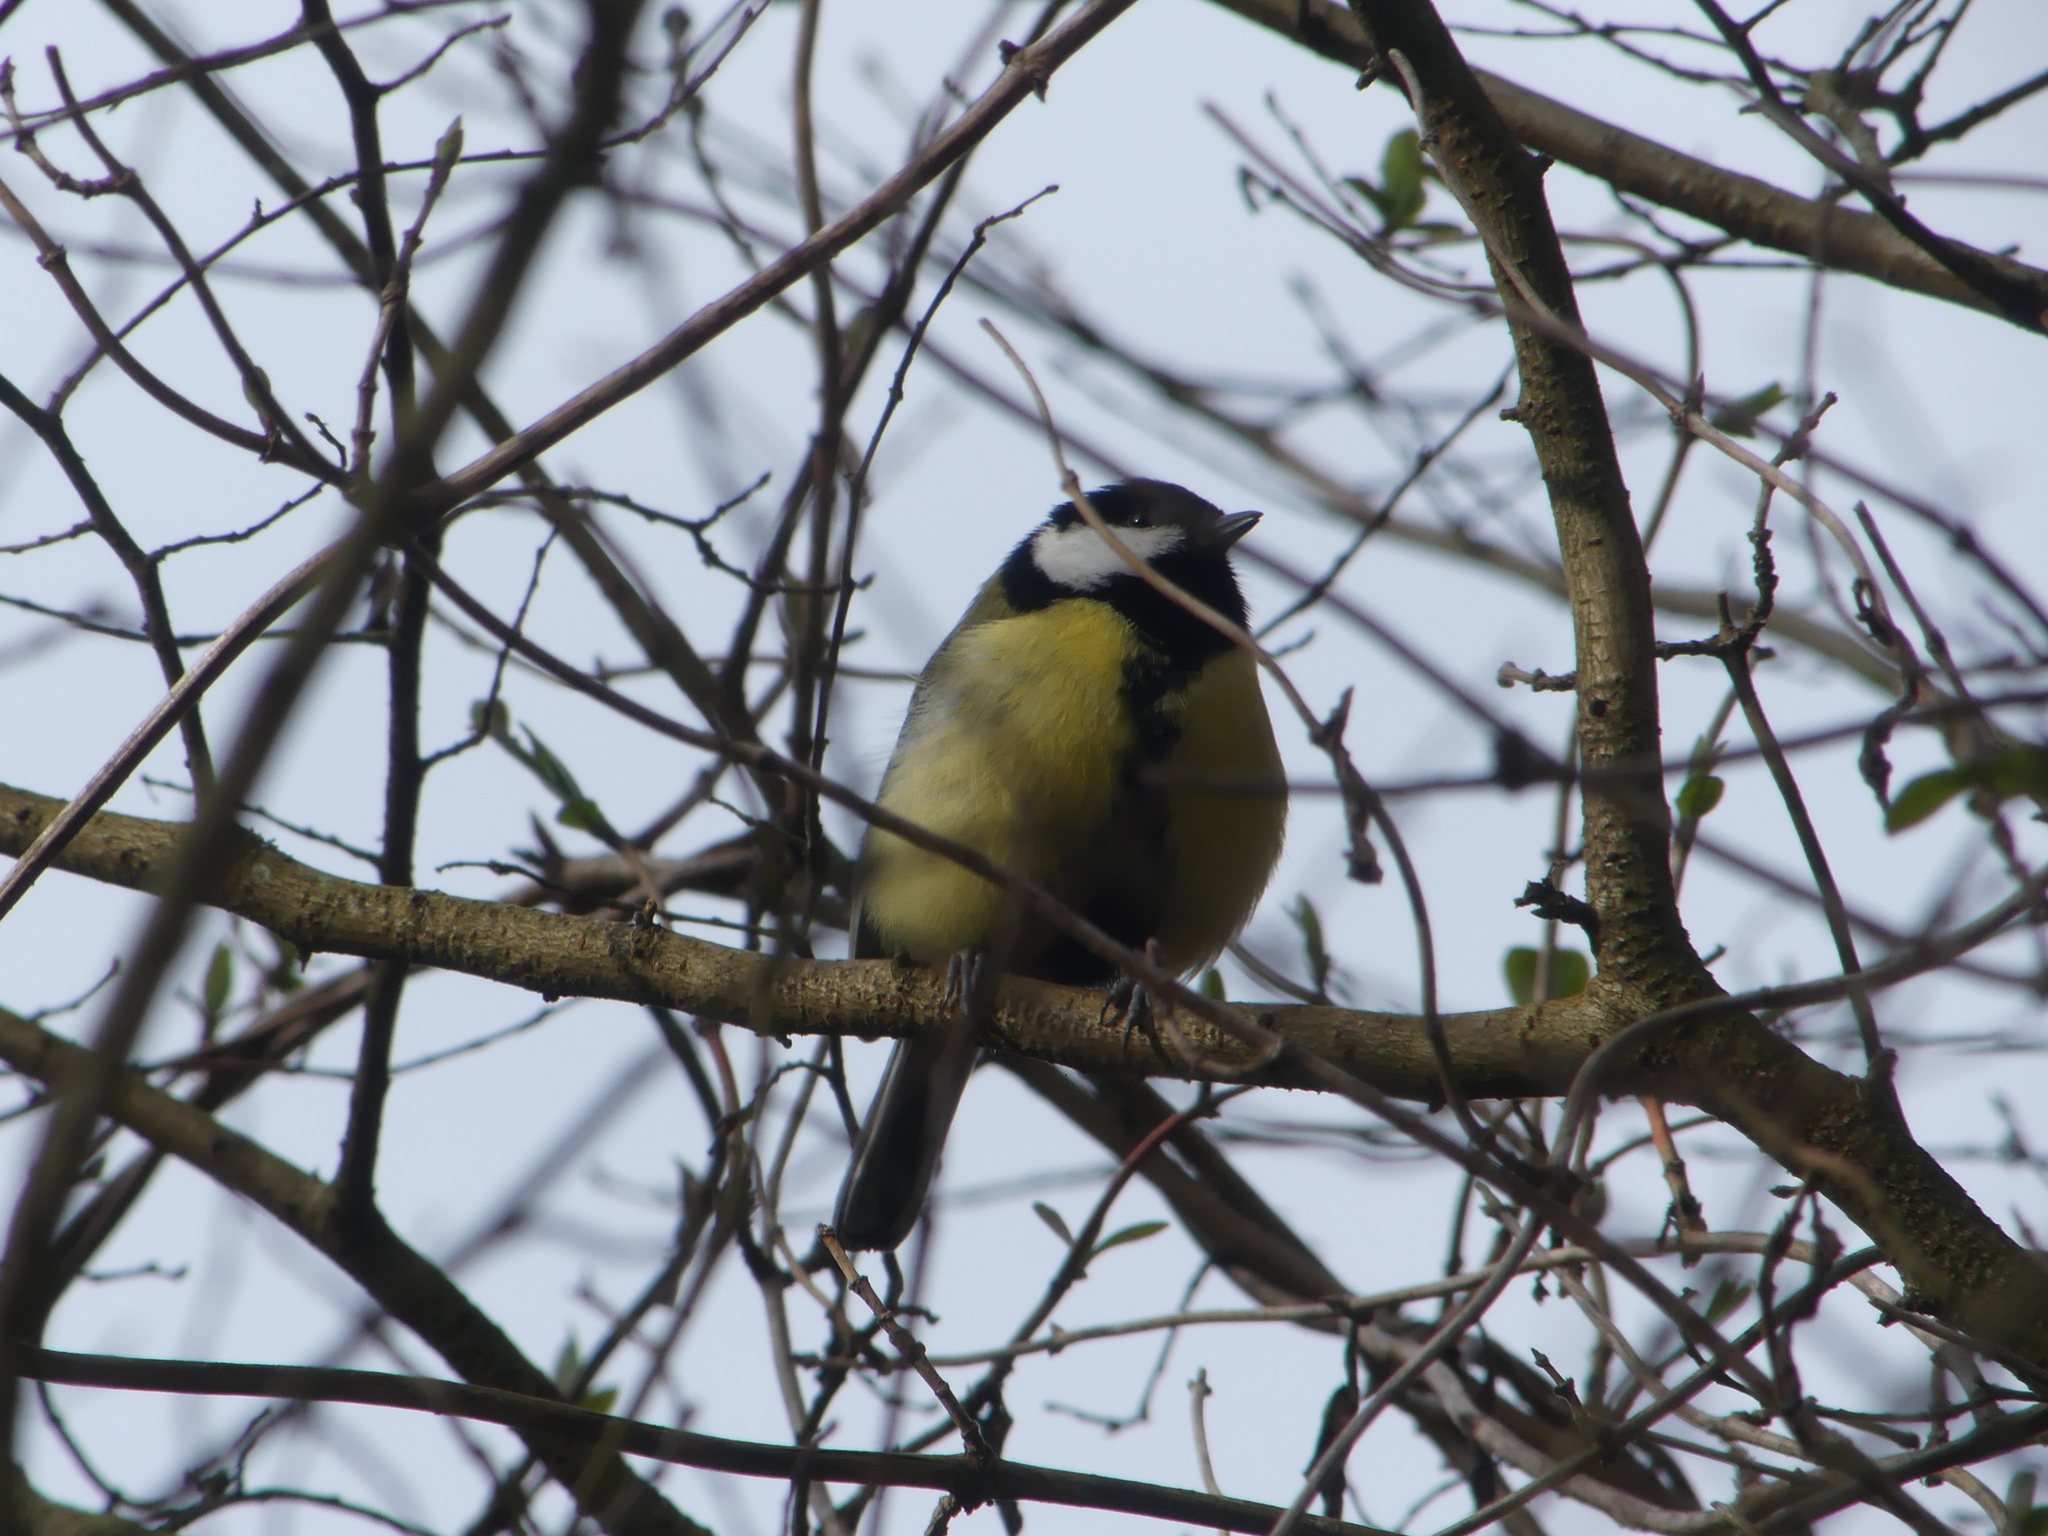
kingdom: Animalia
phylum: Chordata
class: Aves
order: Passeriformes
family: Paridae
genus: Parus
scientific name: Parus major
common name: Great tit
